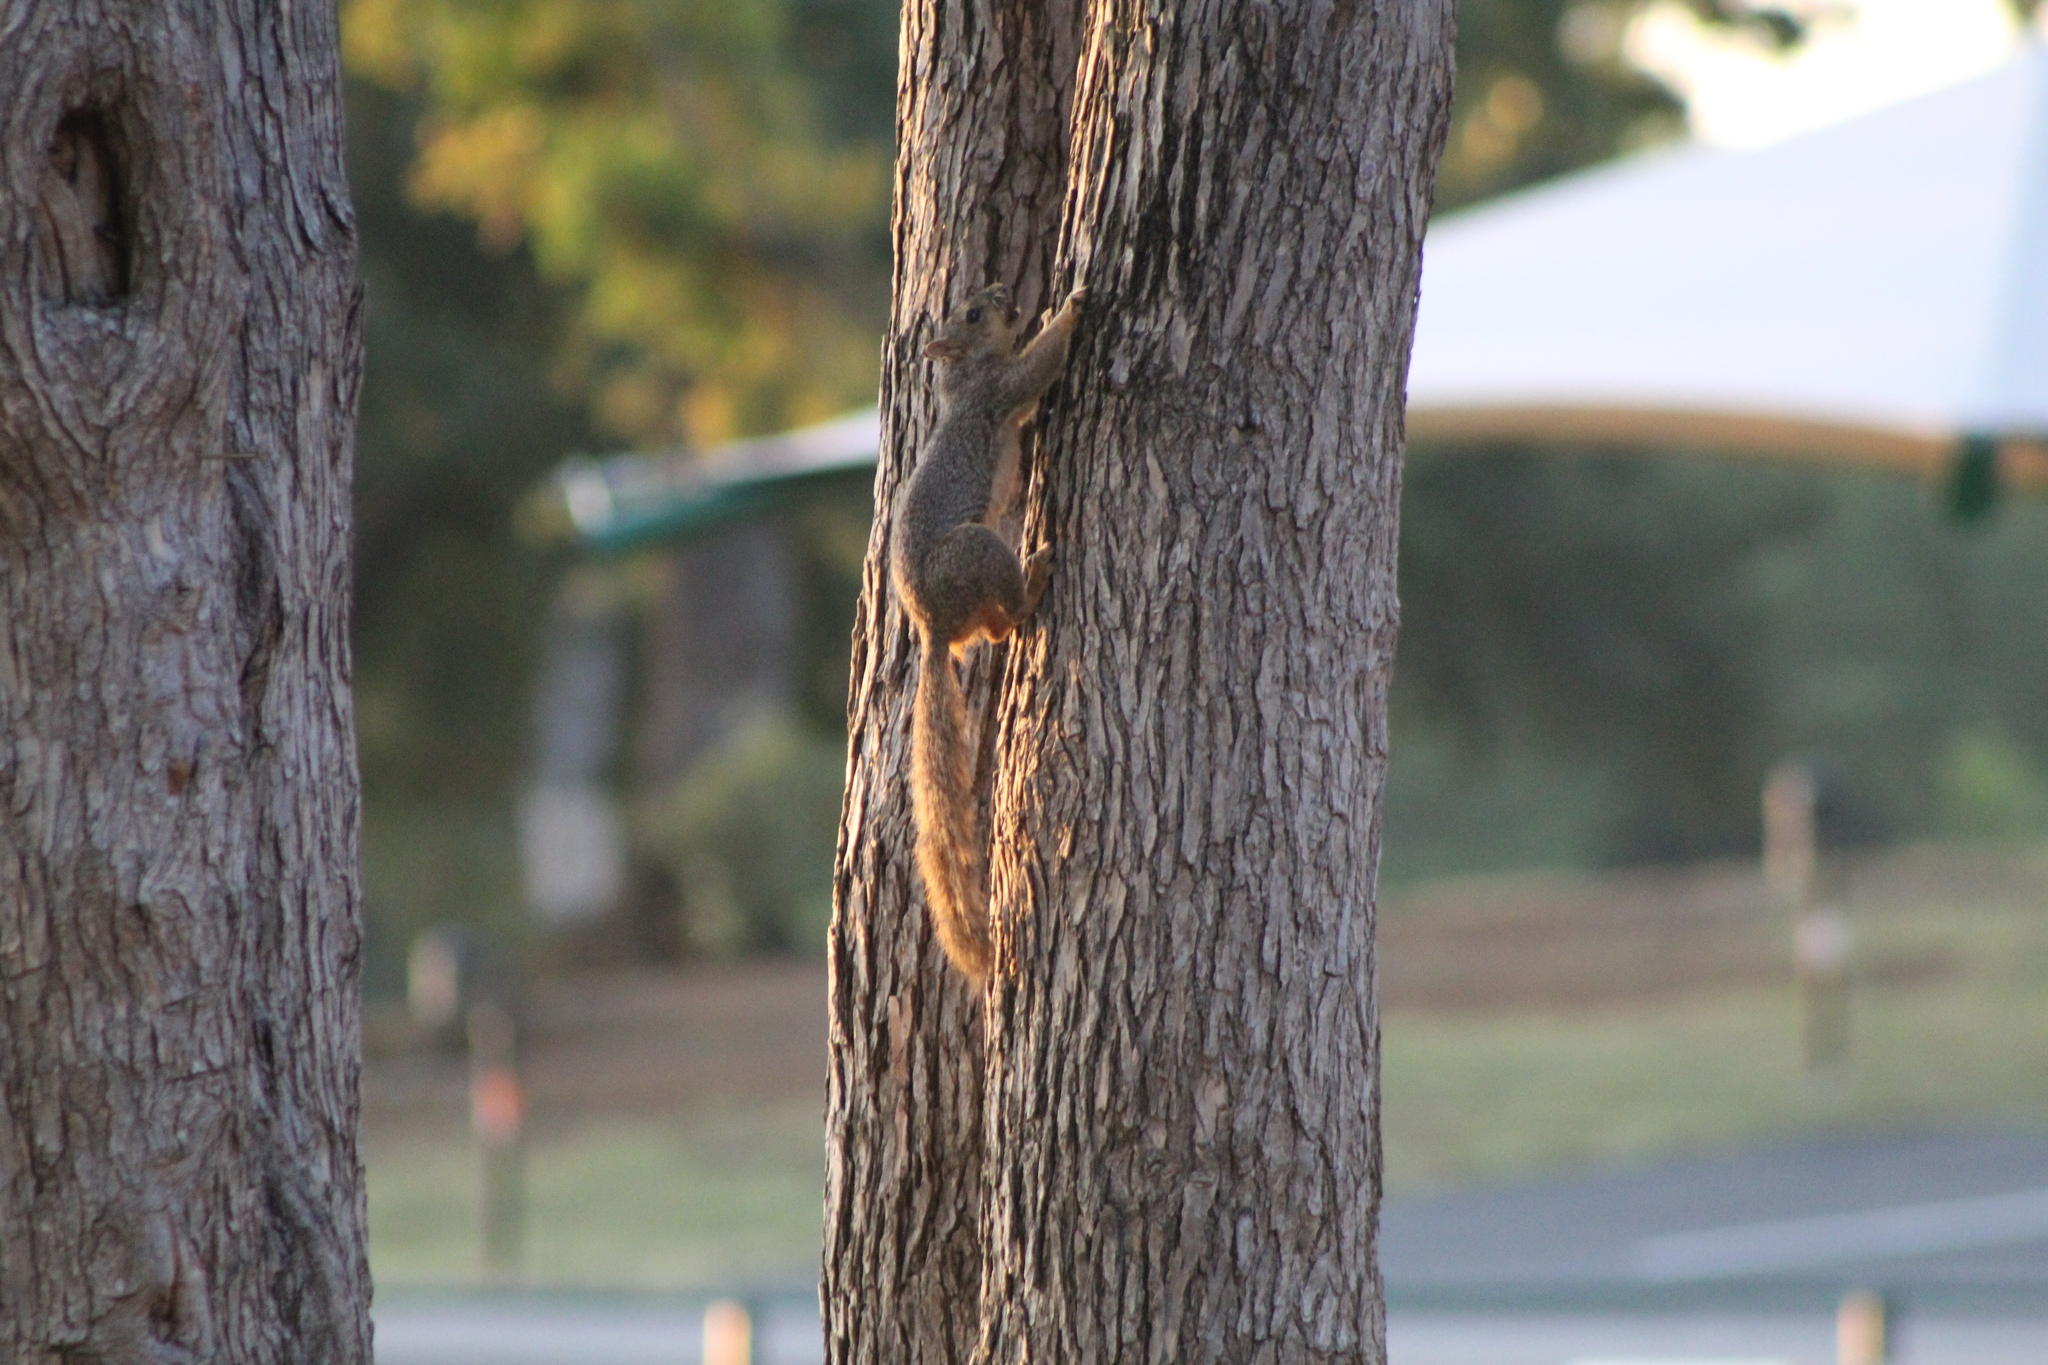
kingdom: Animalia
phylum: Chordata
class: Mammalia
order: Rodentia
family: Sciuridae
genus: Sciurus
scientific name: Sciurus niger
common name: Fox squirrel
